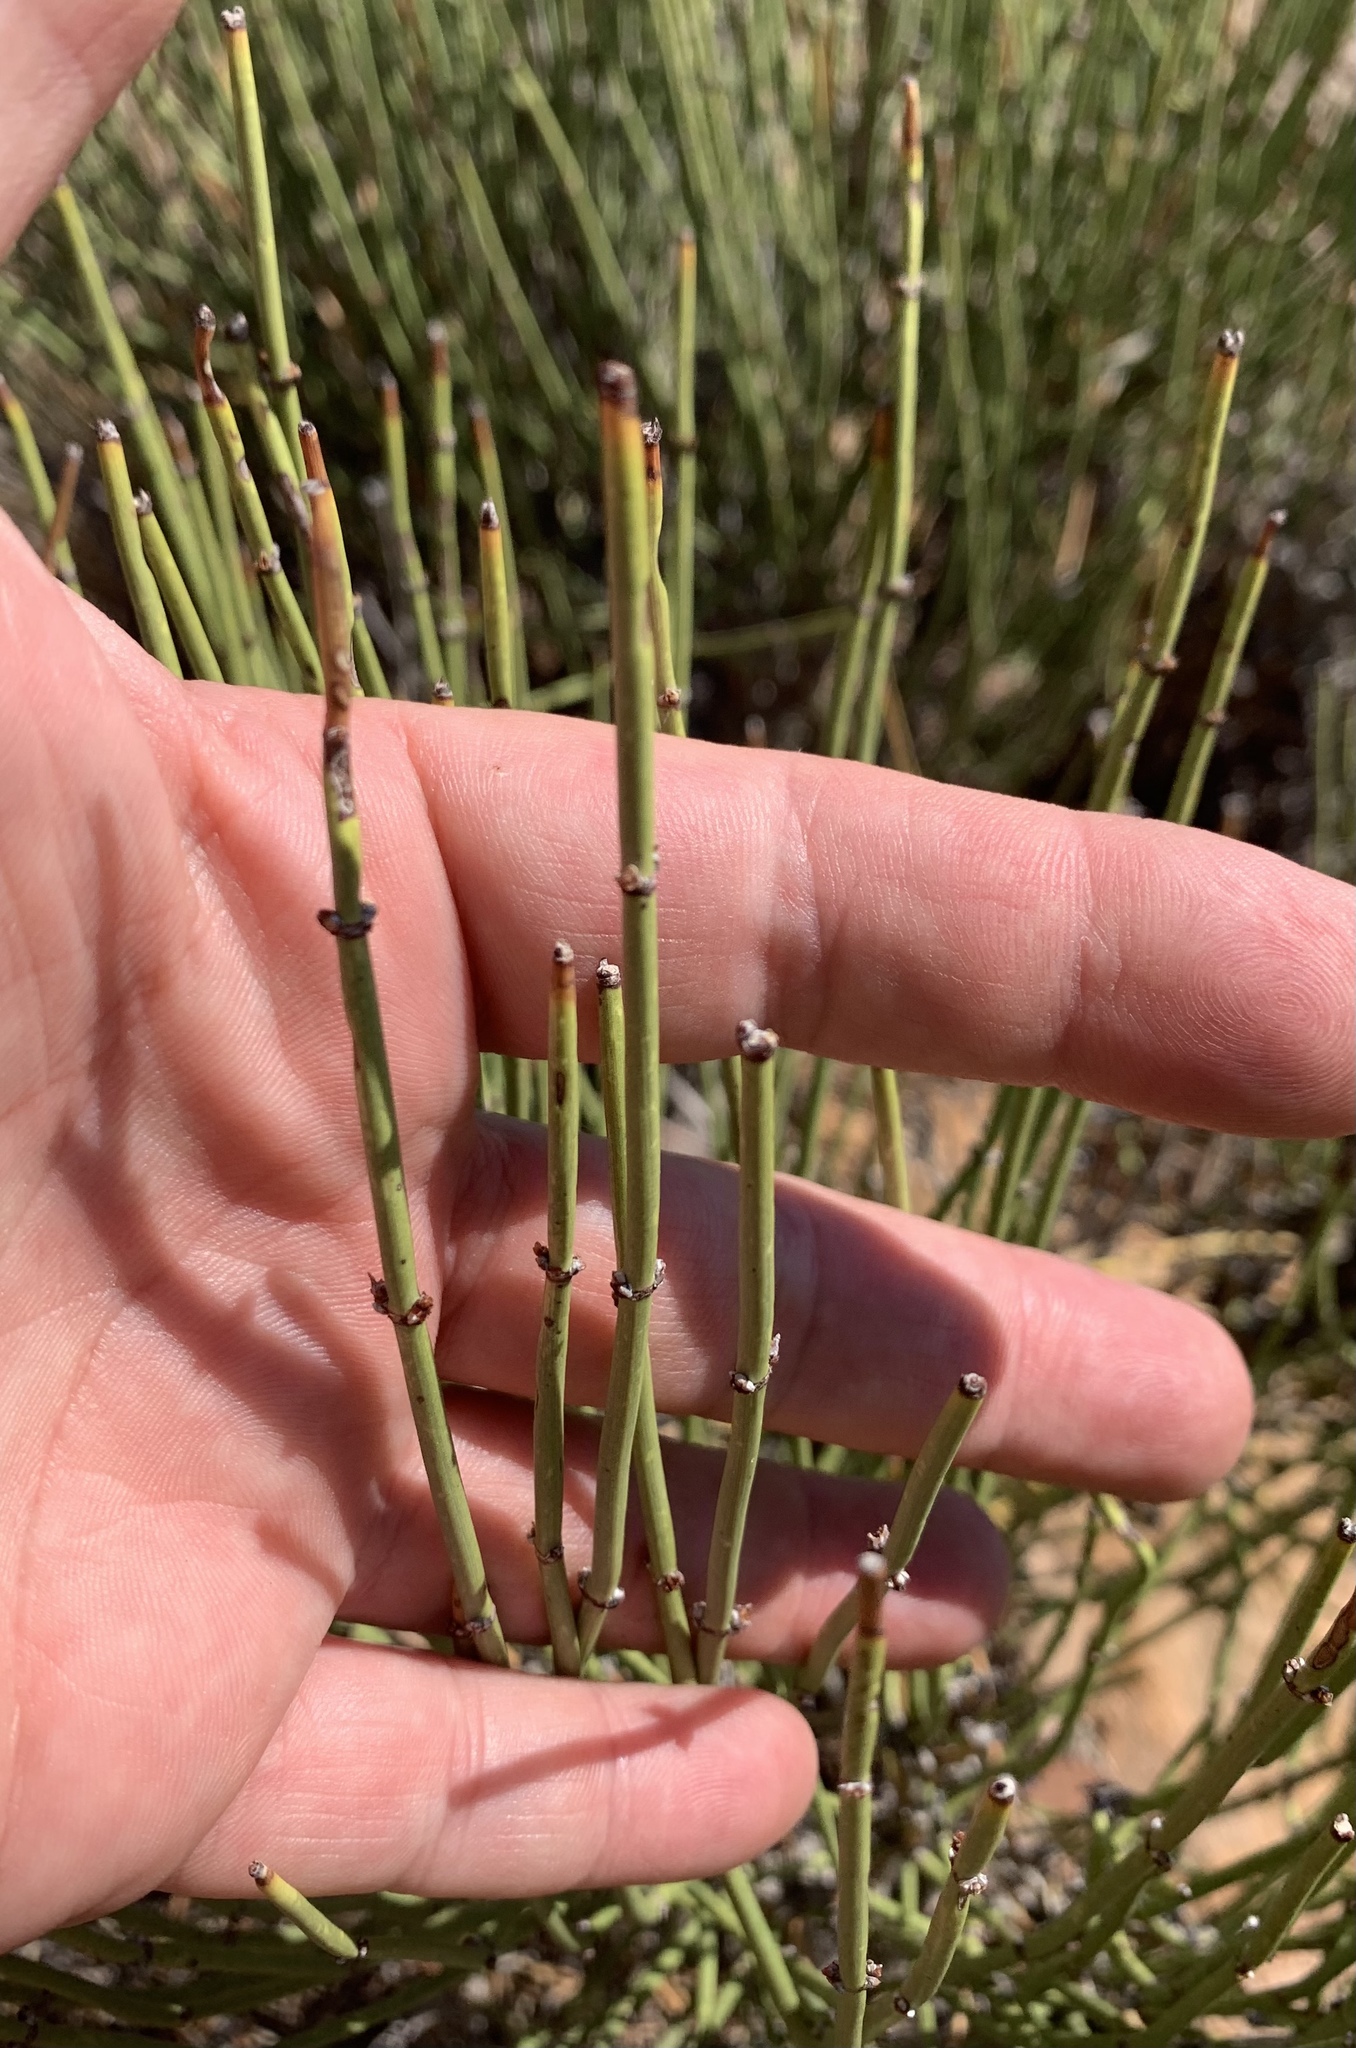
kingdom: Plantae
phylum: Tracheophyta
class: Gnetopsida
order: Ephedrales
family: Ephedraceae
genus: Ephedra
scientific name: Ephedra viridis
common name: Green ephedra
